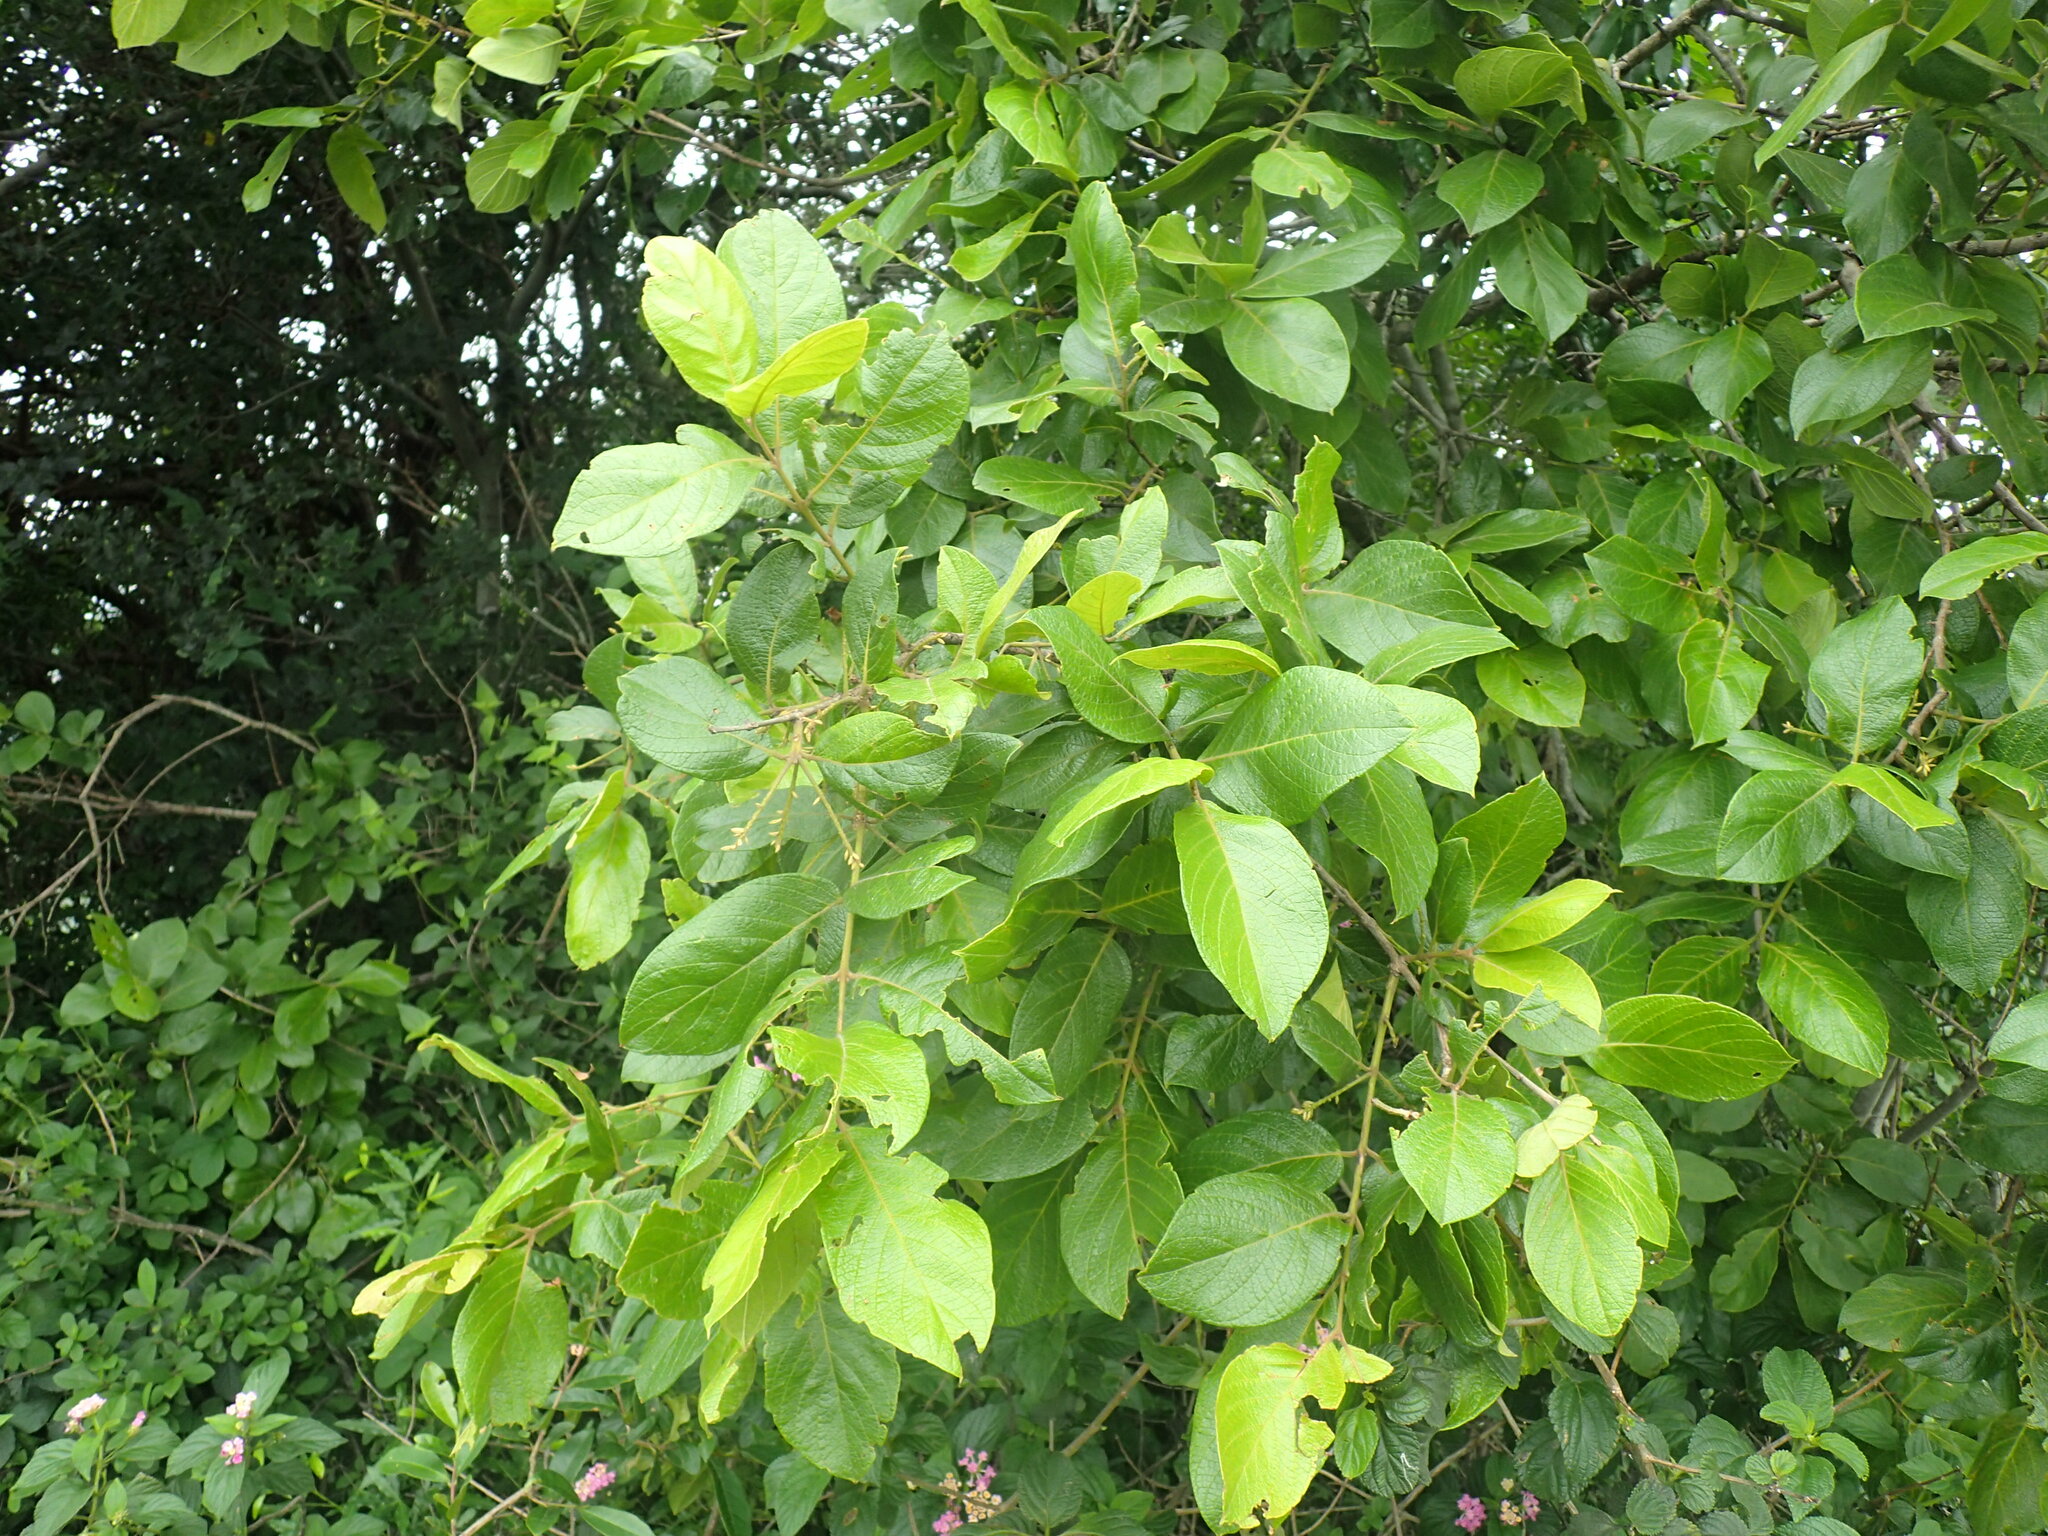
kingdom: Plantae
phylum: Tracheophyta
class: Magnoliopsida
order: Myrtales
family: Combretaceae
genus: Combretum
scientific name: Combretum molle
